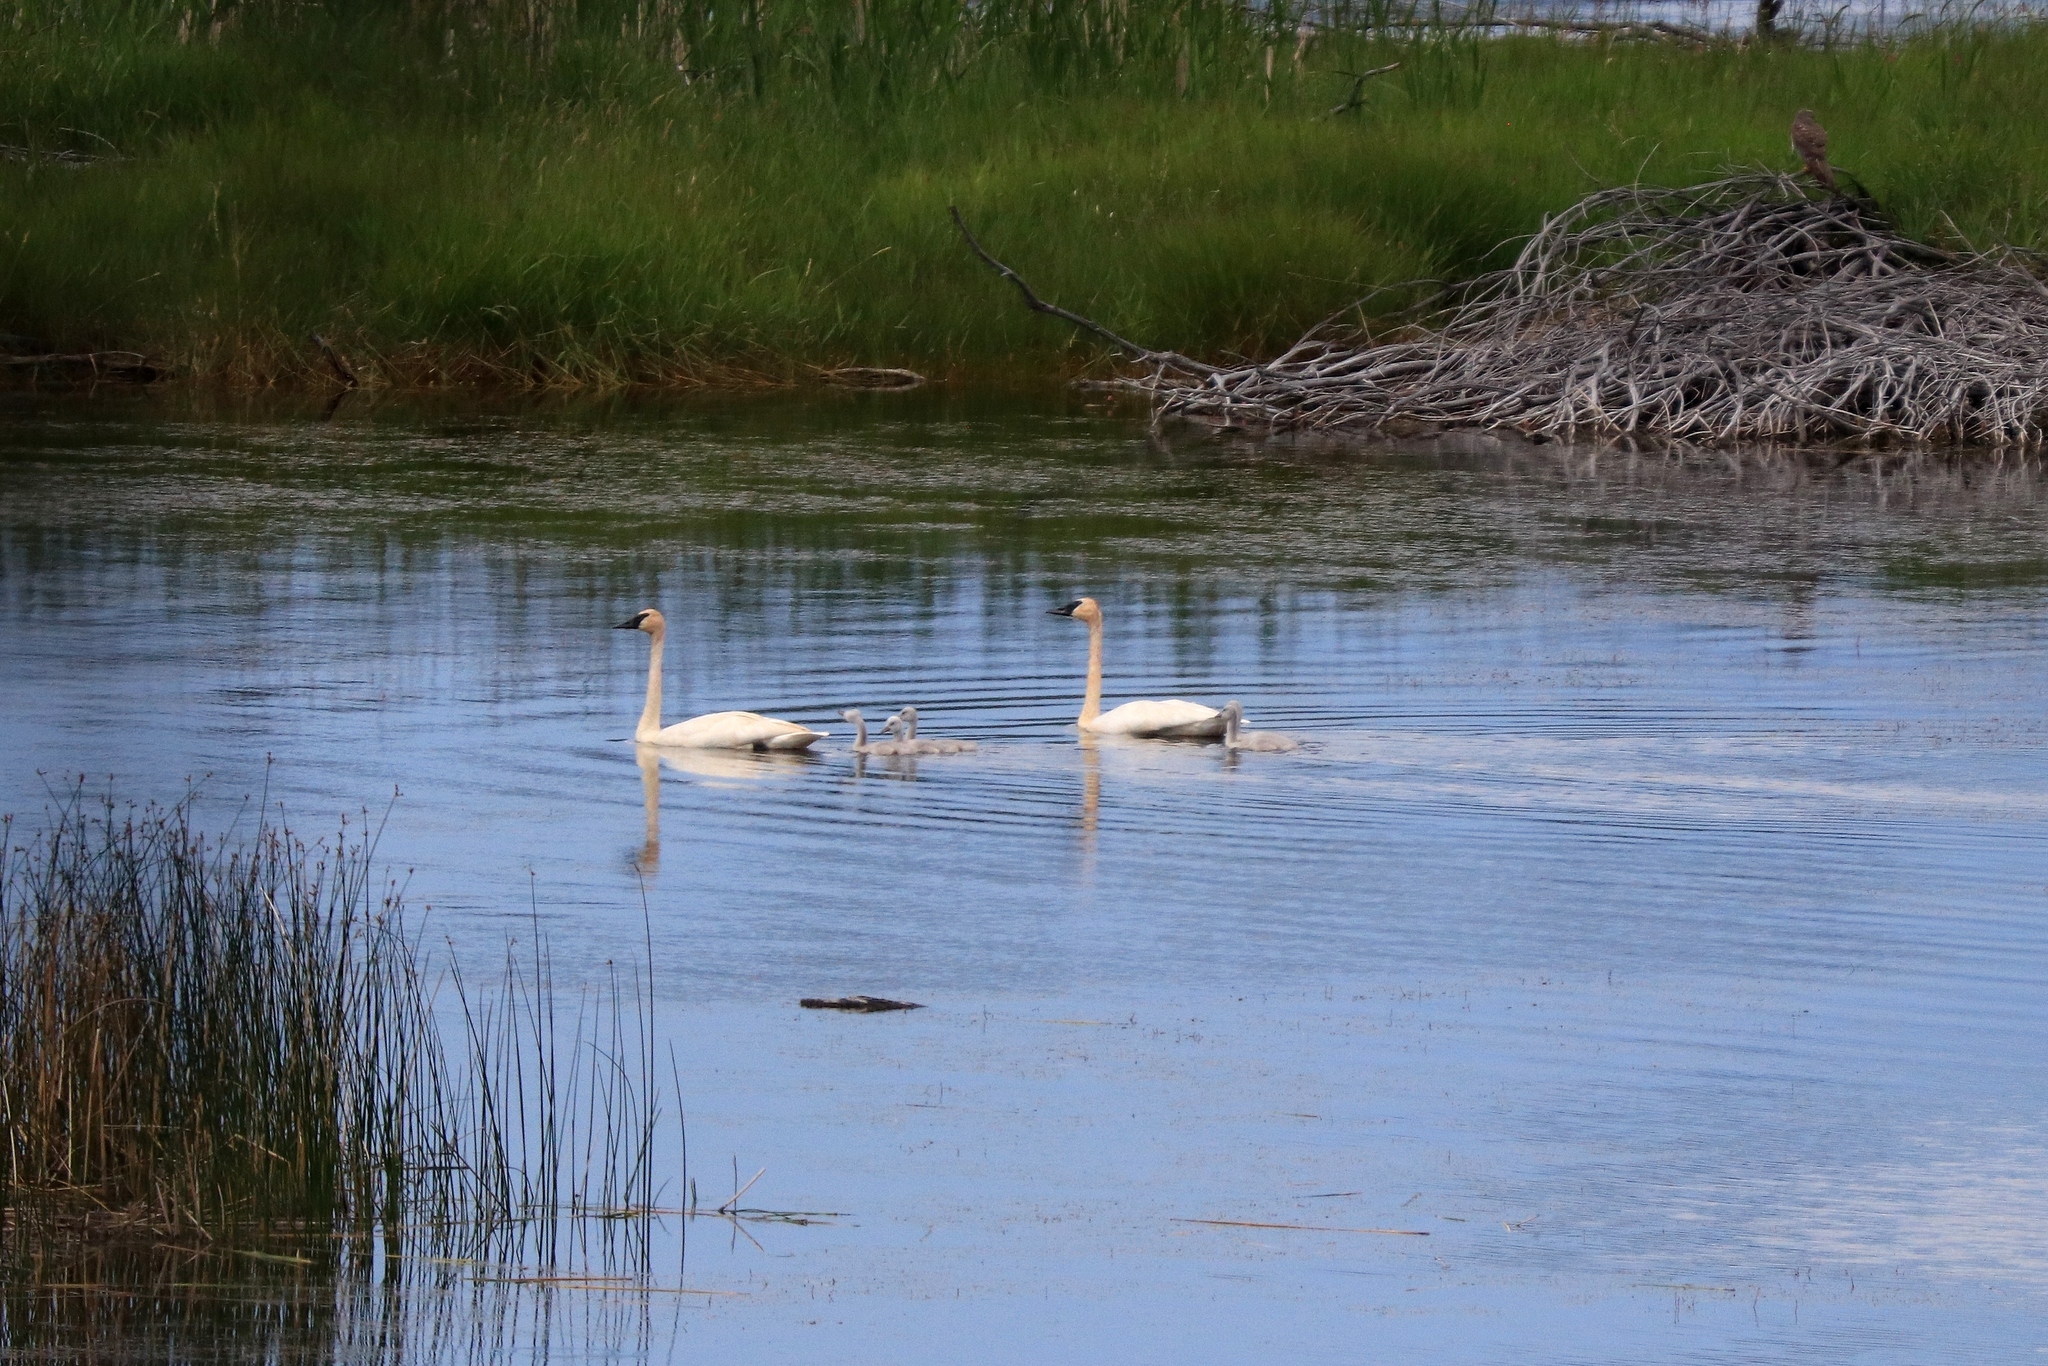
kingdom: Animalia
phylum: Chordata
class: Aves
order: Anseriformes
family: Anatidae
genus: Cygnus
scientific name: Cygnus buccinator
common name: Trumpeter swan
